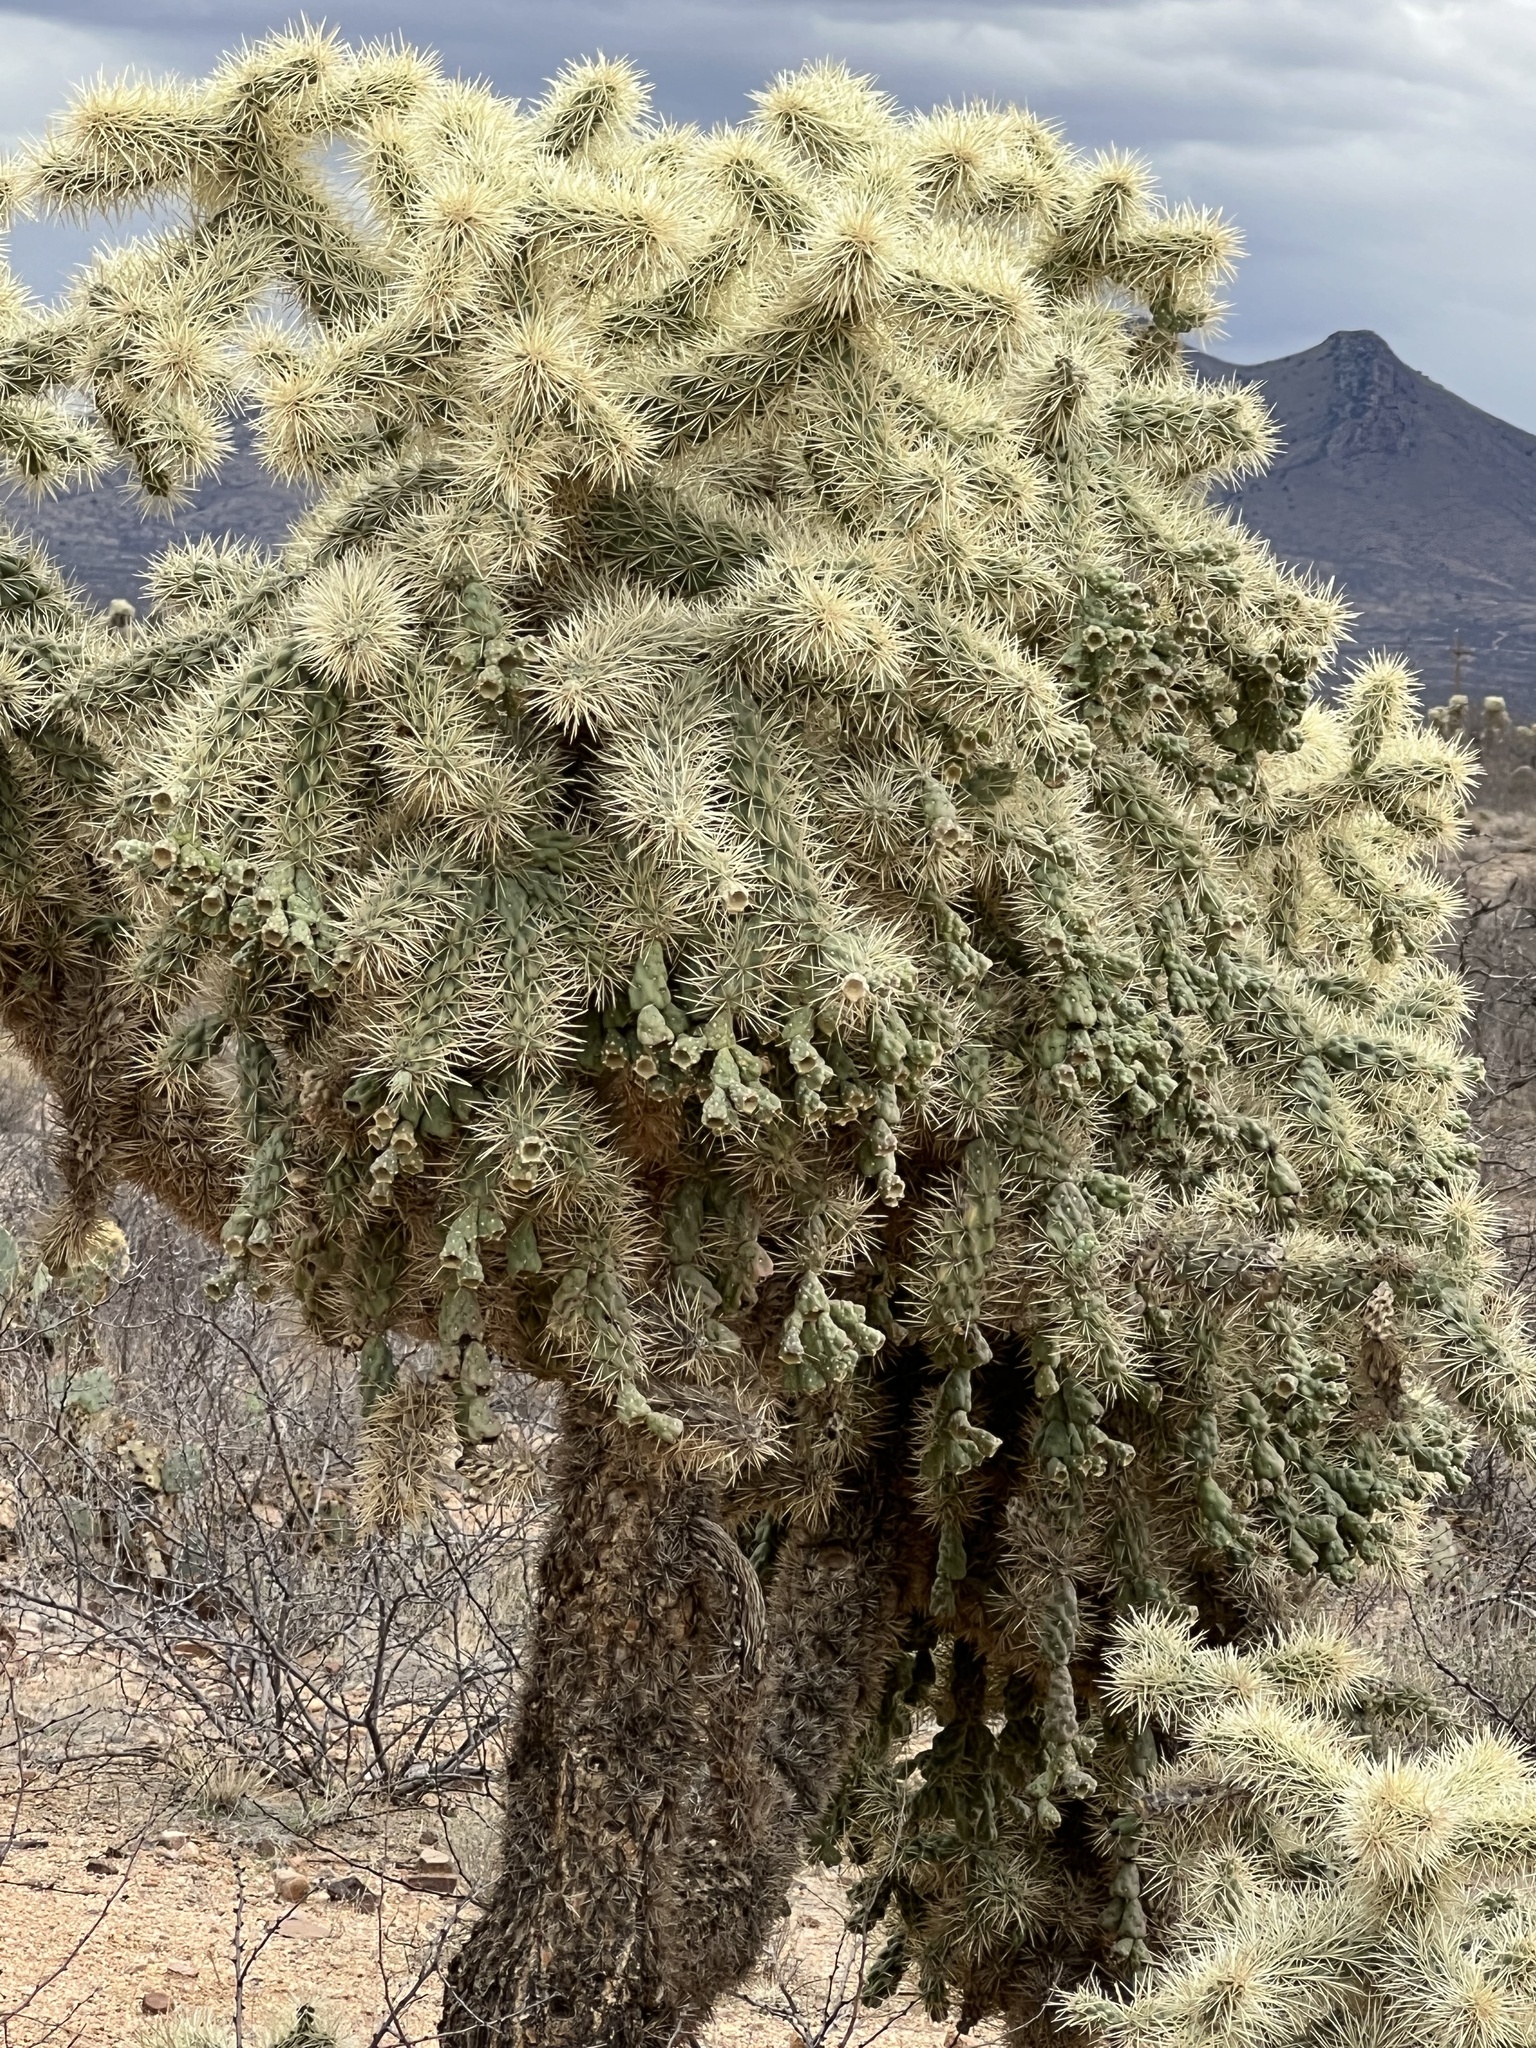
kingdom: Plantae
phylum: Tracheophyta
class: Magnoliopsida
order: Caryophyllales
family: Cactaceae
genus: Cylindropuntia
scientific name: Cylindropuntia fulgida
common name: Jumping cholla
